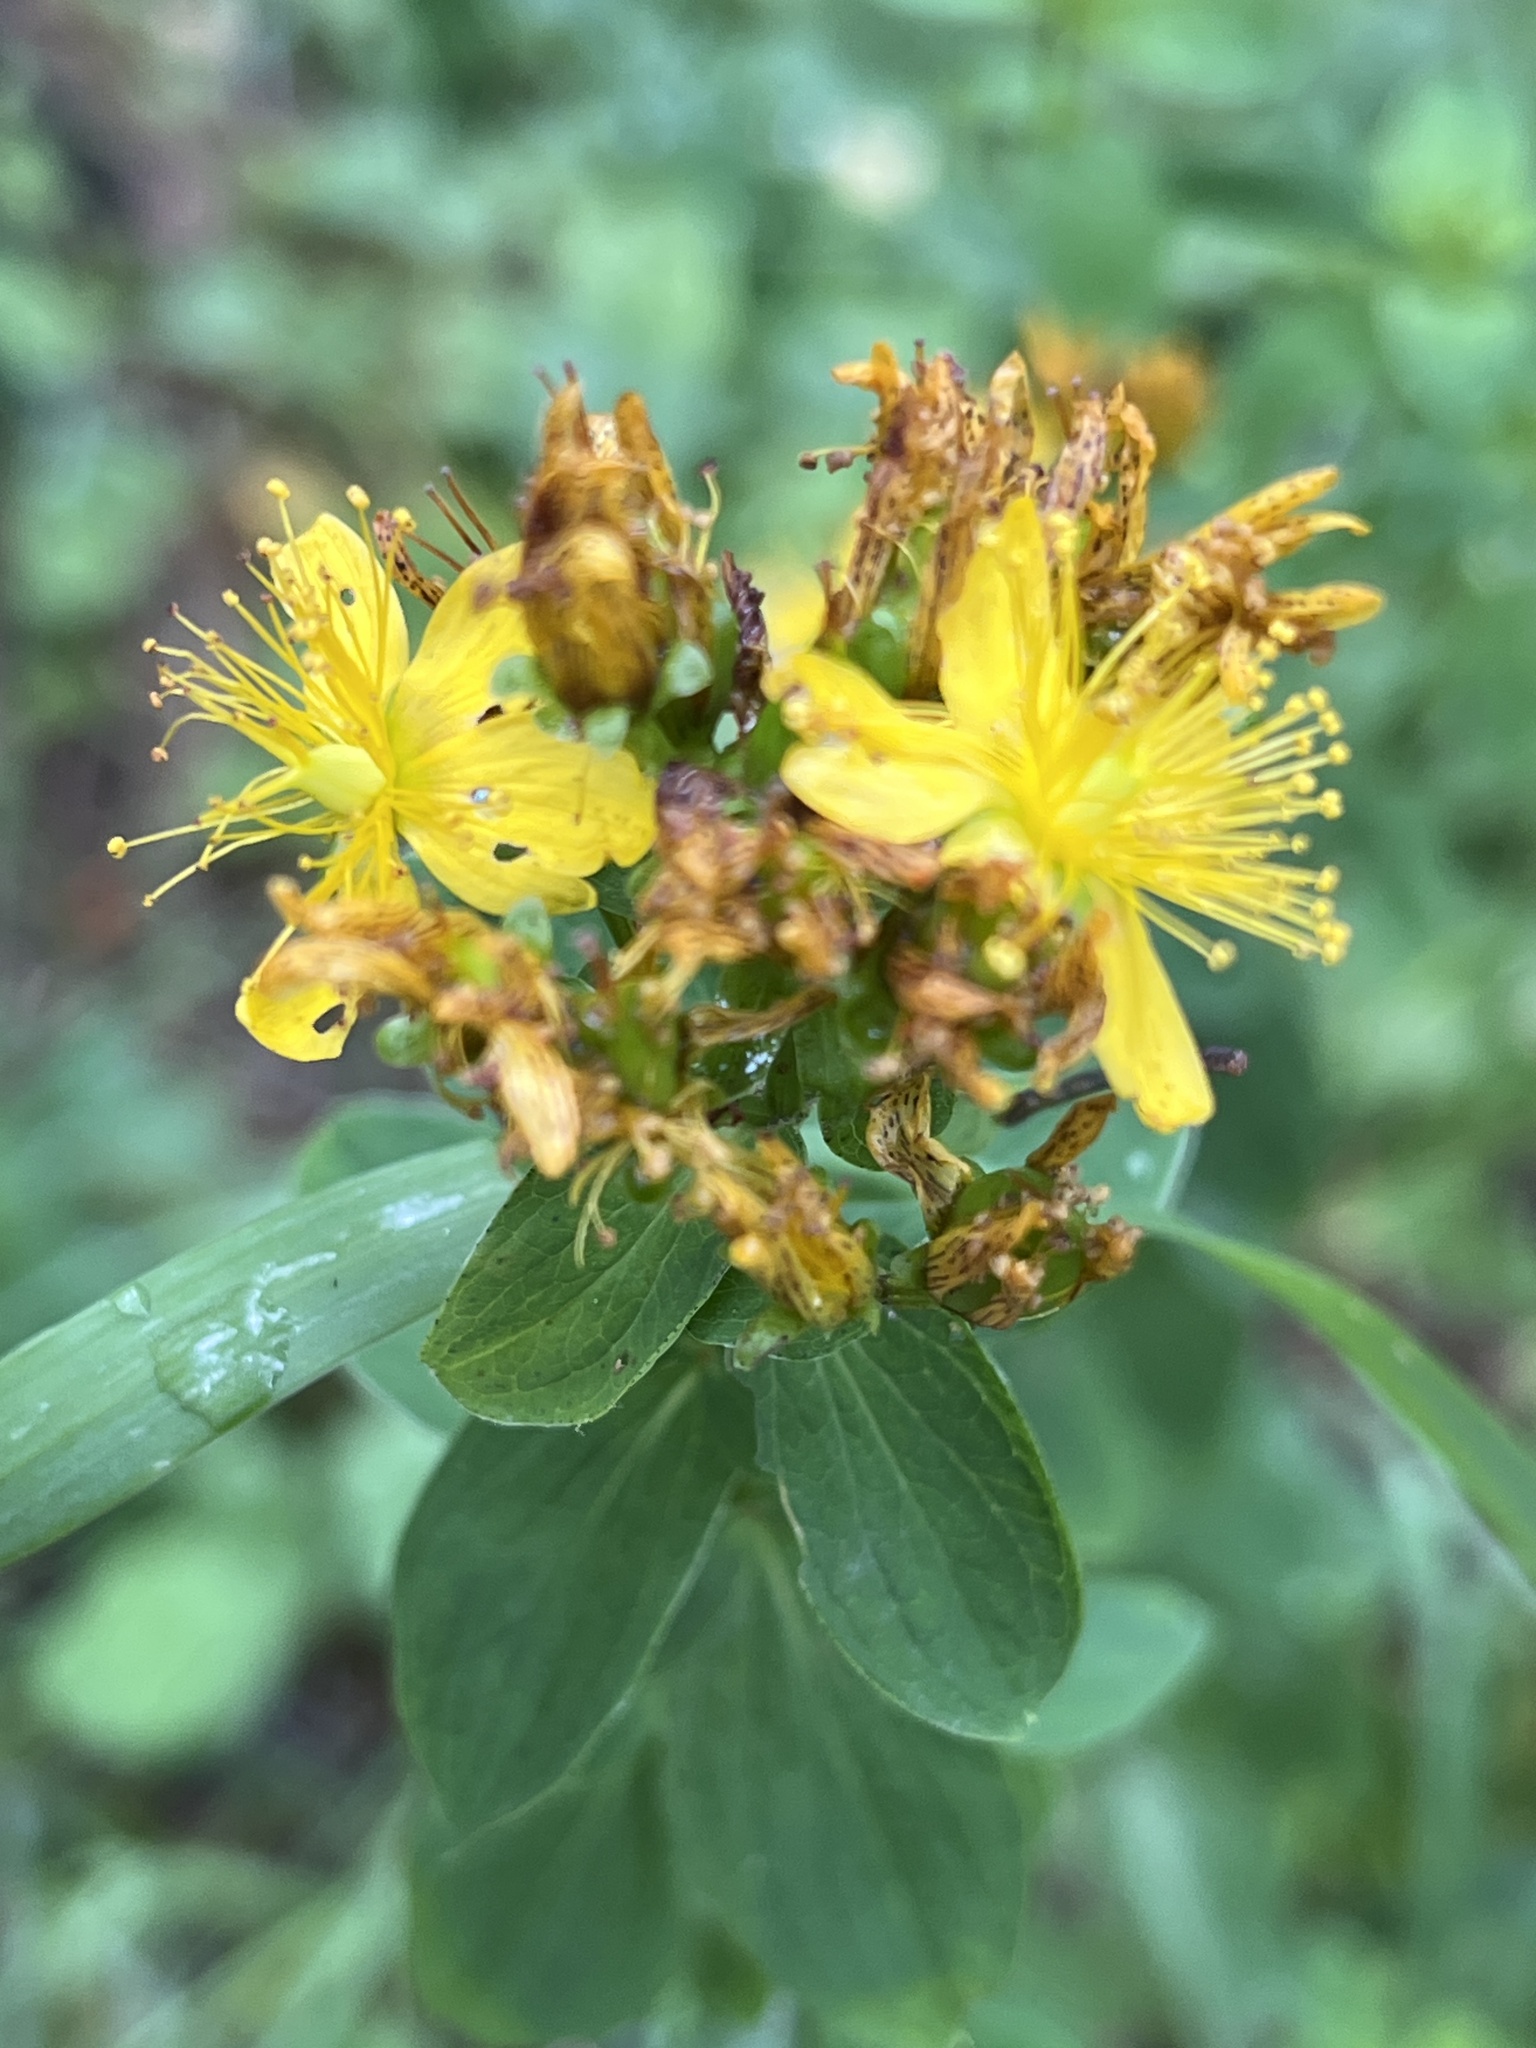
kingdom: Plantae
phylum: Tracheophyta
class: Magnoliopsida
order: Malpighiales
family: Hypericaceae
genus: Hypericum
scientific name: Hypericum maculatum
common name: Imperforate st. john's-wort
